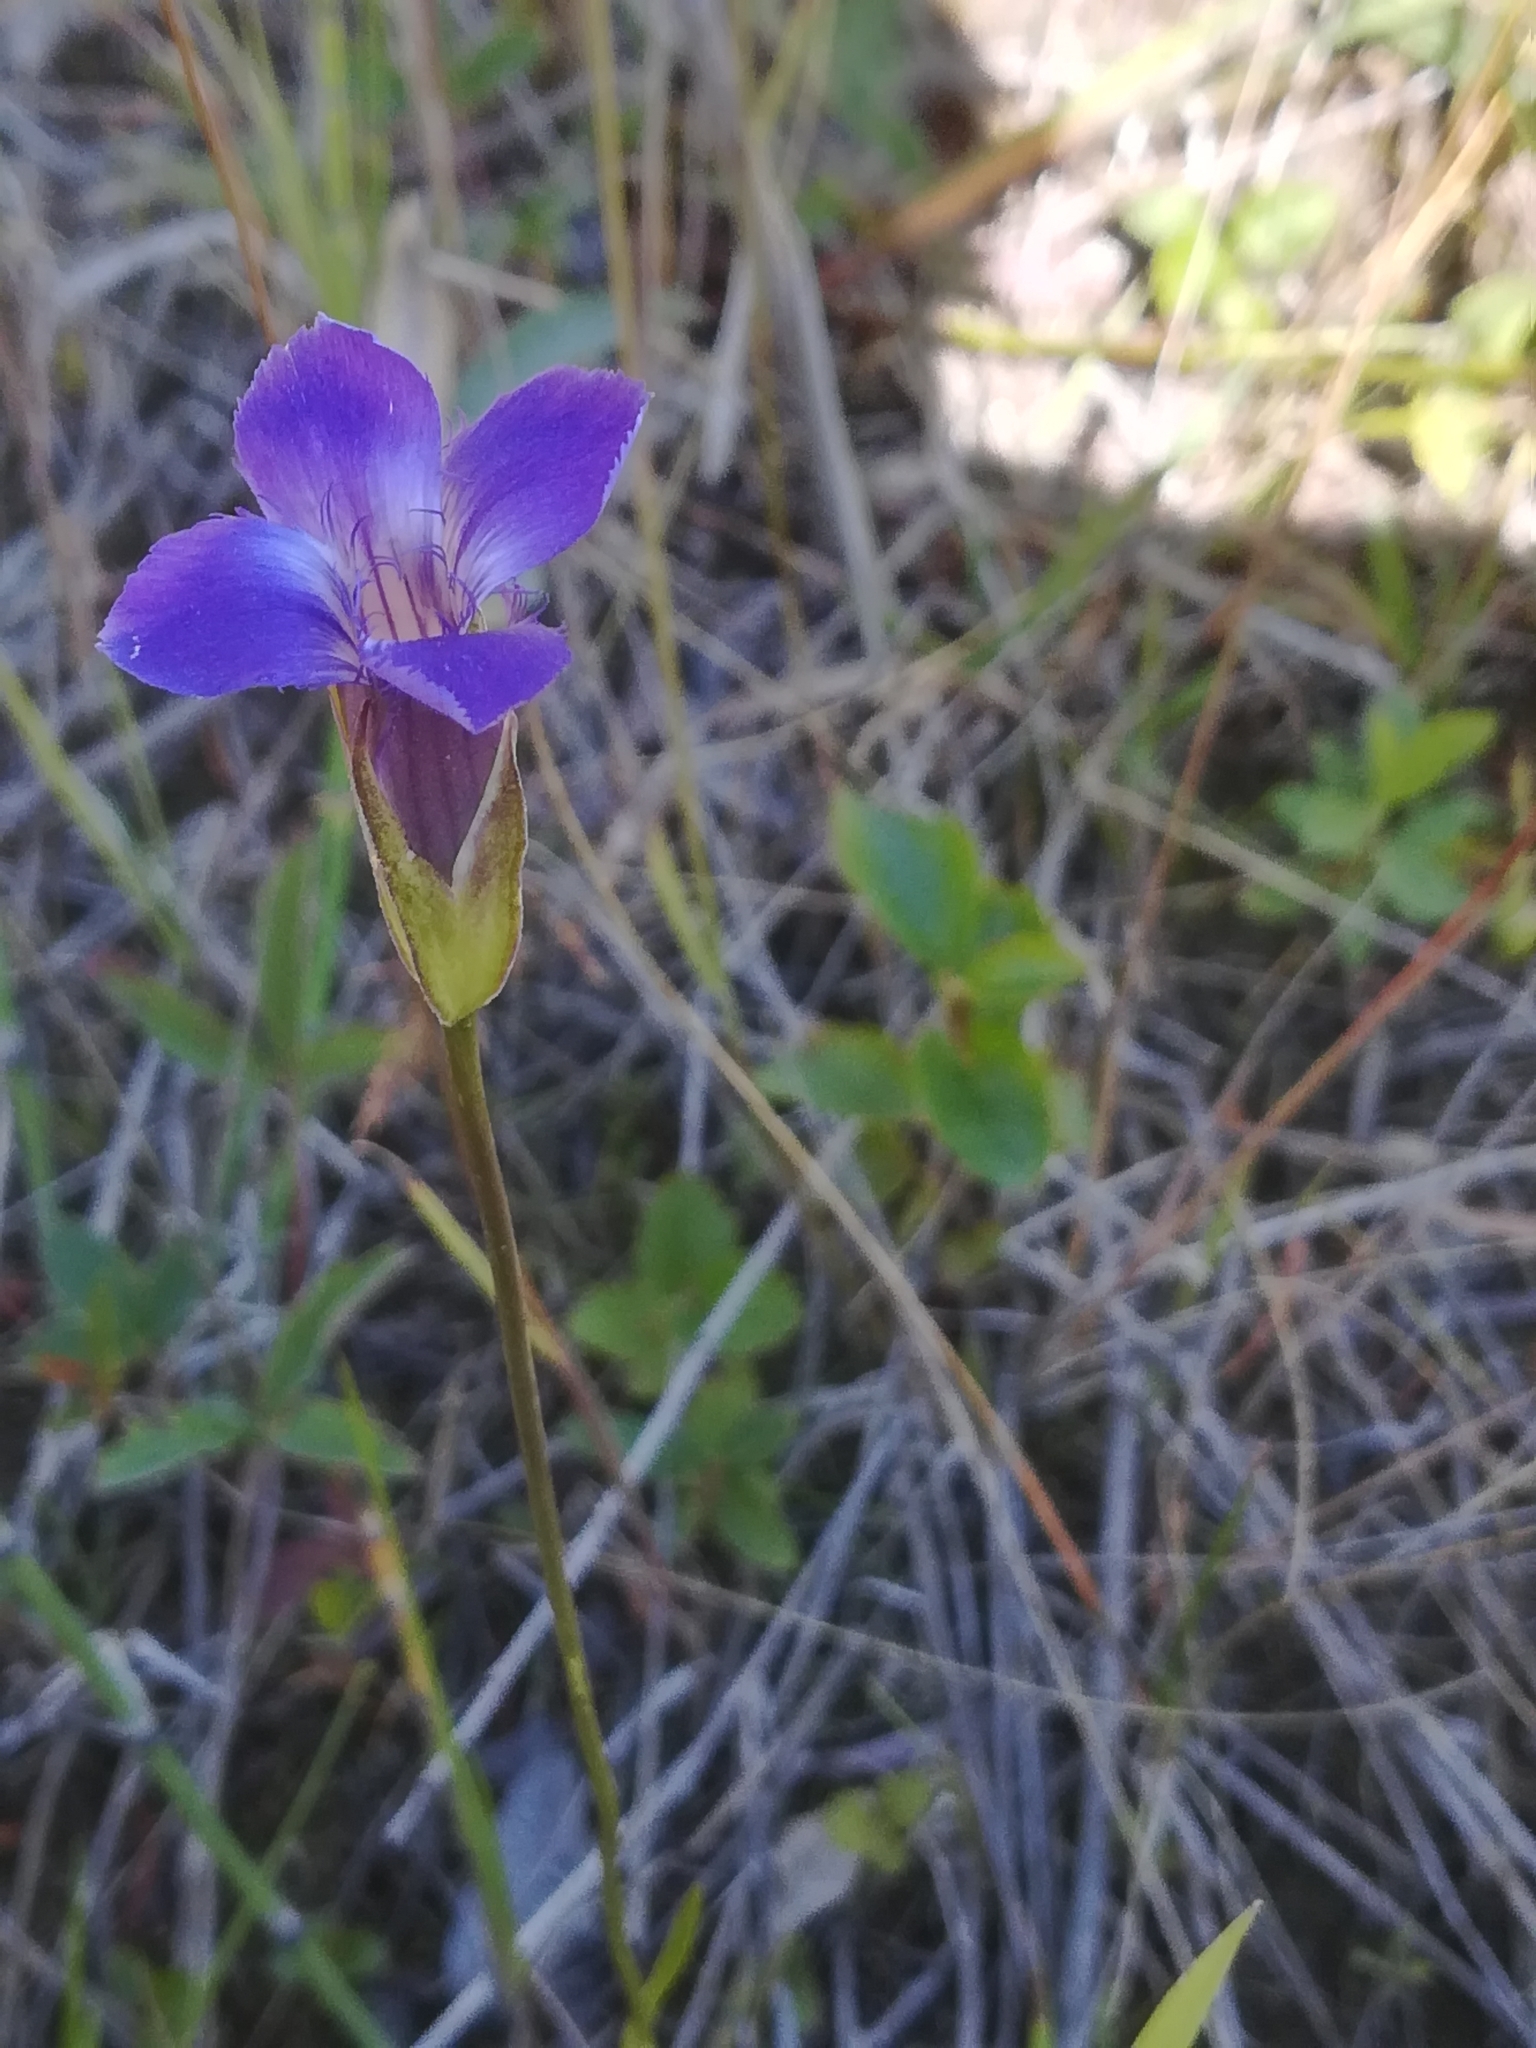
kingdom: Plantae
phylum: Tracheophyta
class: Magnoliopsida
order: Gentianales
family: Gentianaceae
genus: Gentianopsis
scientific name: Gentianopsis virgata
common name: Lesser fringed-gentian
